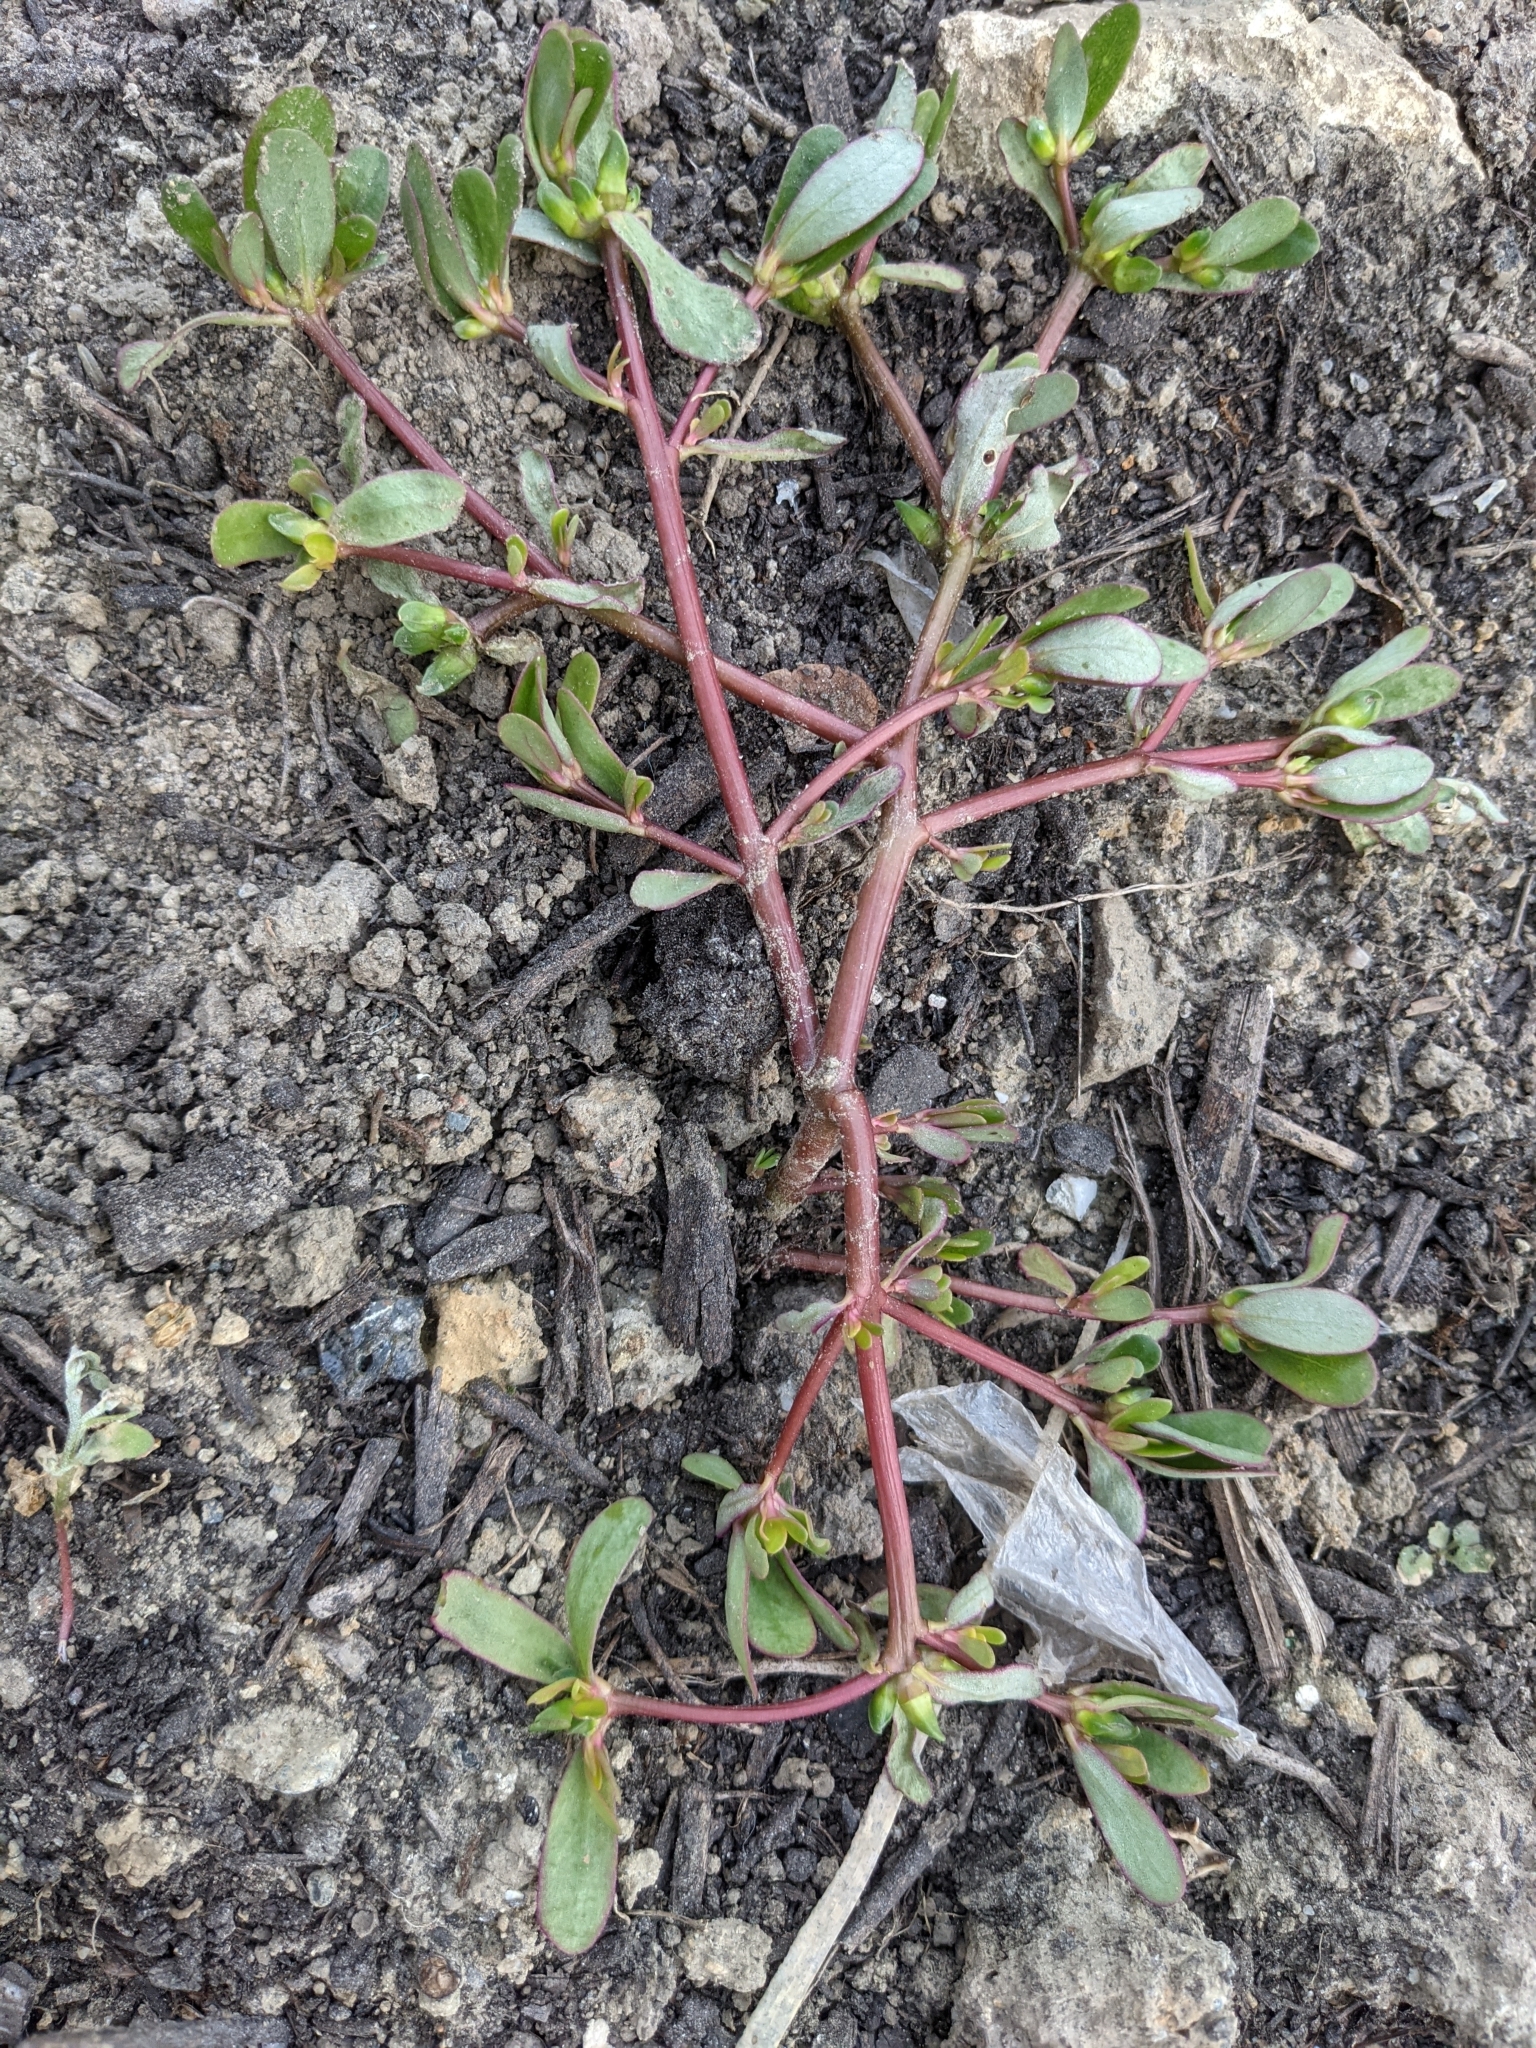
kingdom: Plantae
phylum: Tracheophyta
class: Magnoliopsida
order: Caryophyllales
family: Portulacaceae
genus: Portulaca
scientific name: Portulaca oleracea
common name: Common purslane
